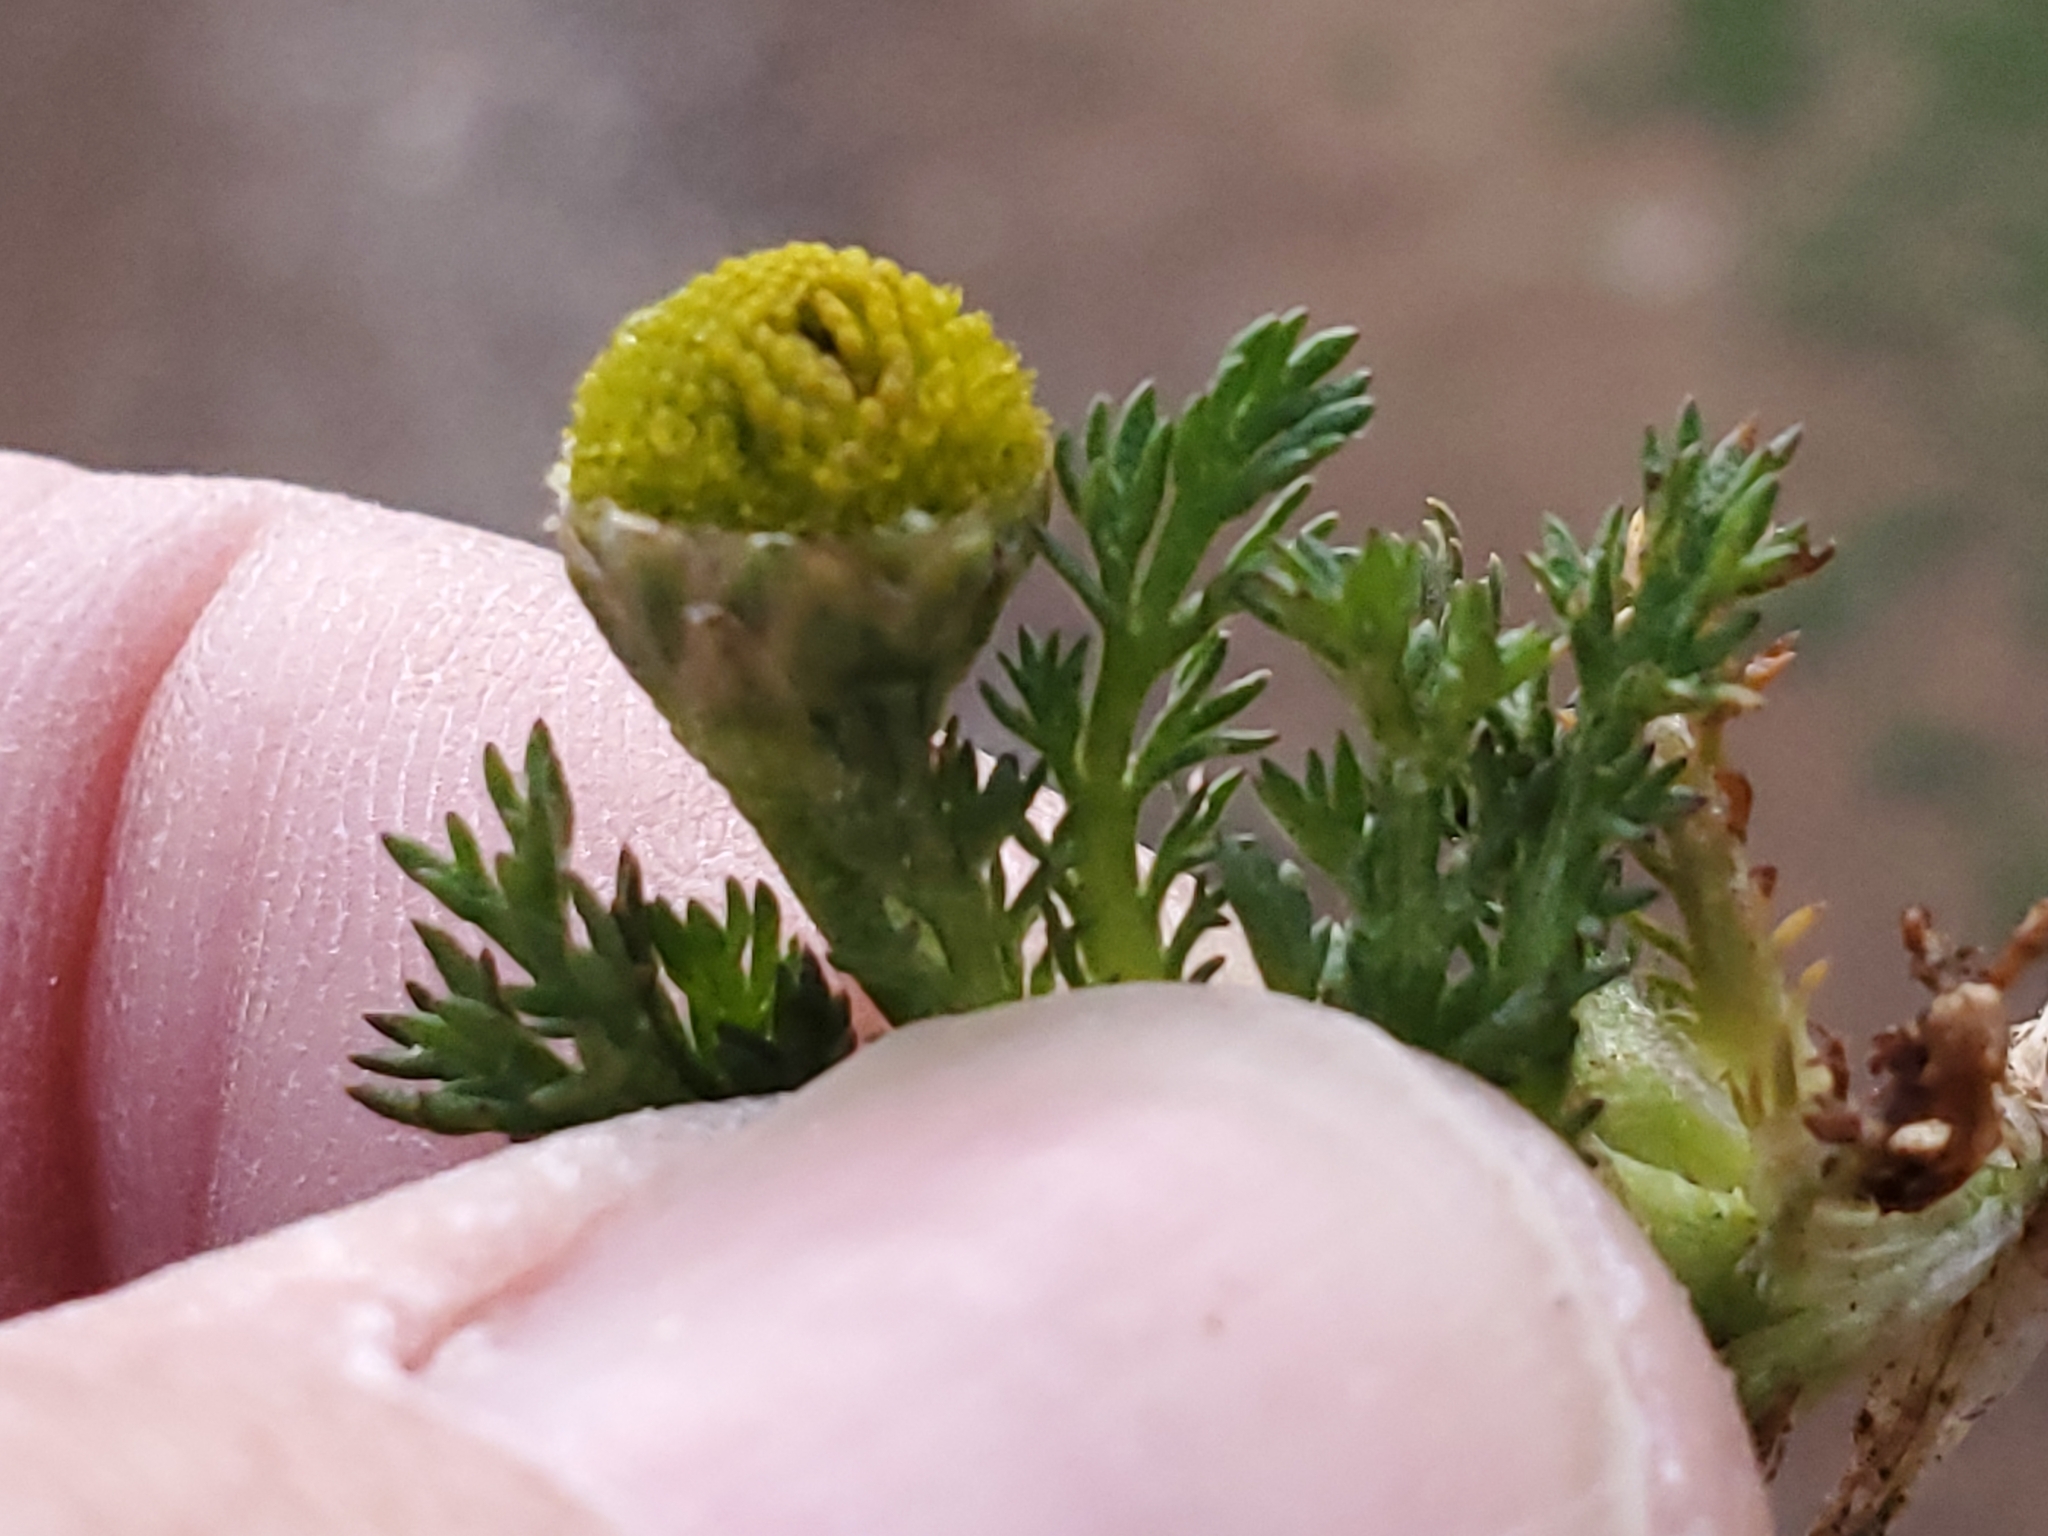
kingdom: Plantae
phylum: Tracheophyta
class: Magnoliopsida
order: Asterales
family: Asteraceae
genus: Matricaria
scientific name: Matricaria discoidea
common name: Disc mayweed
